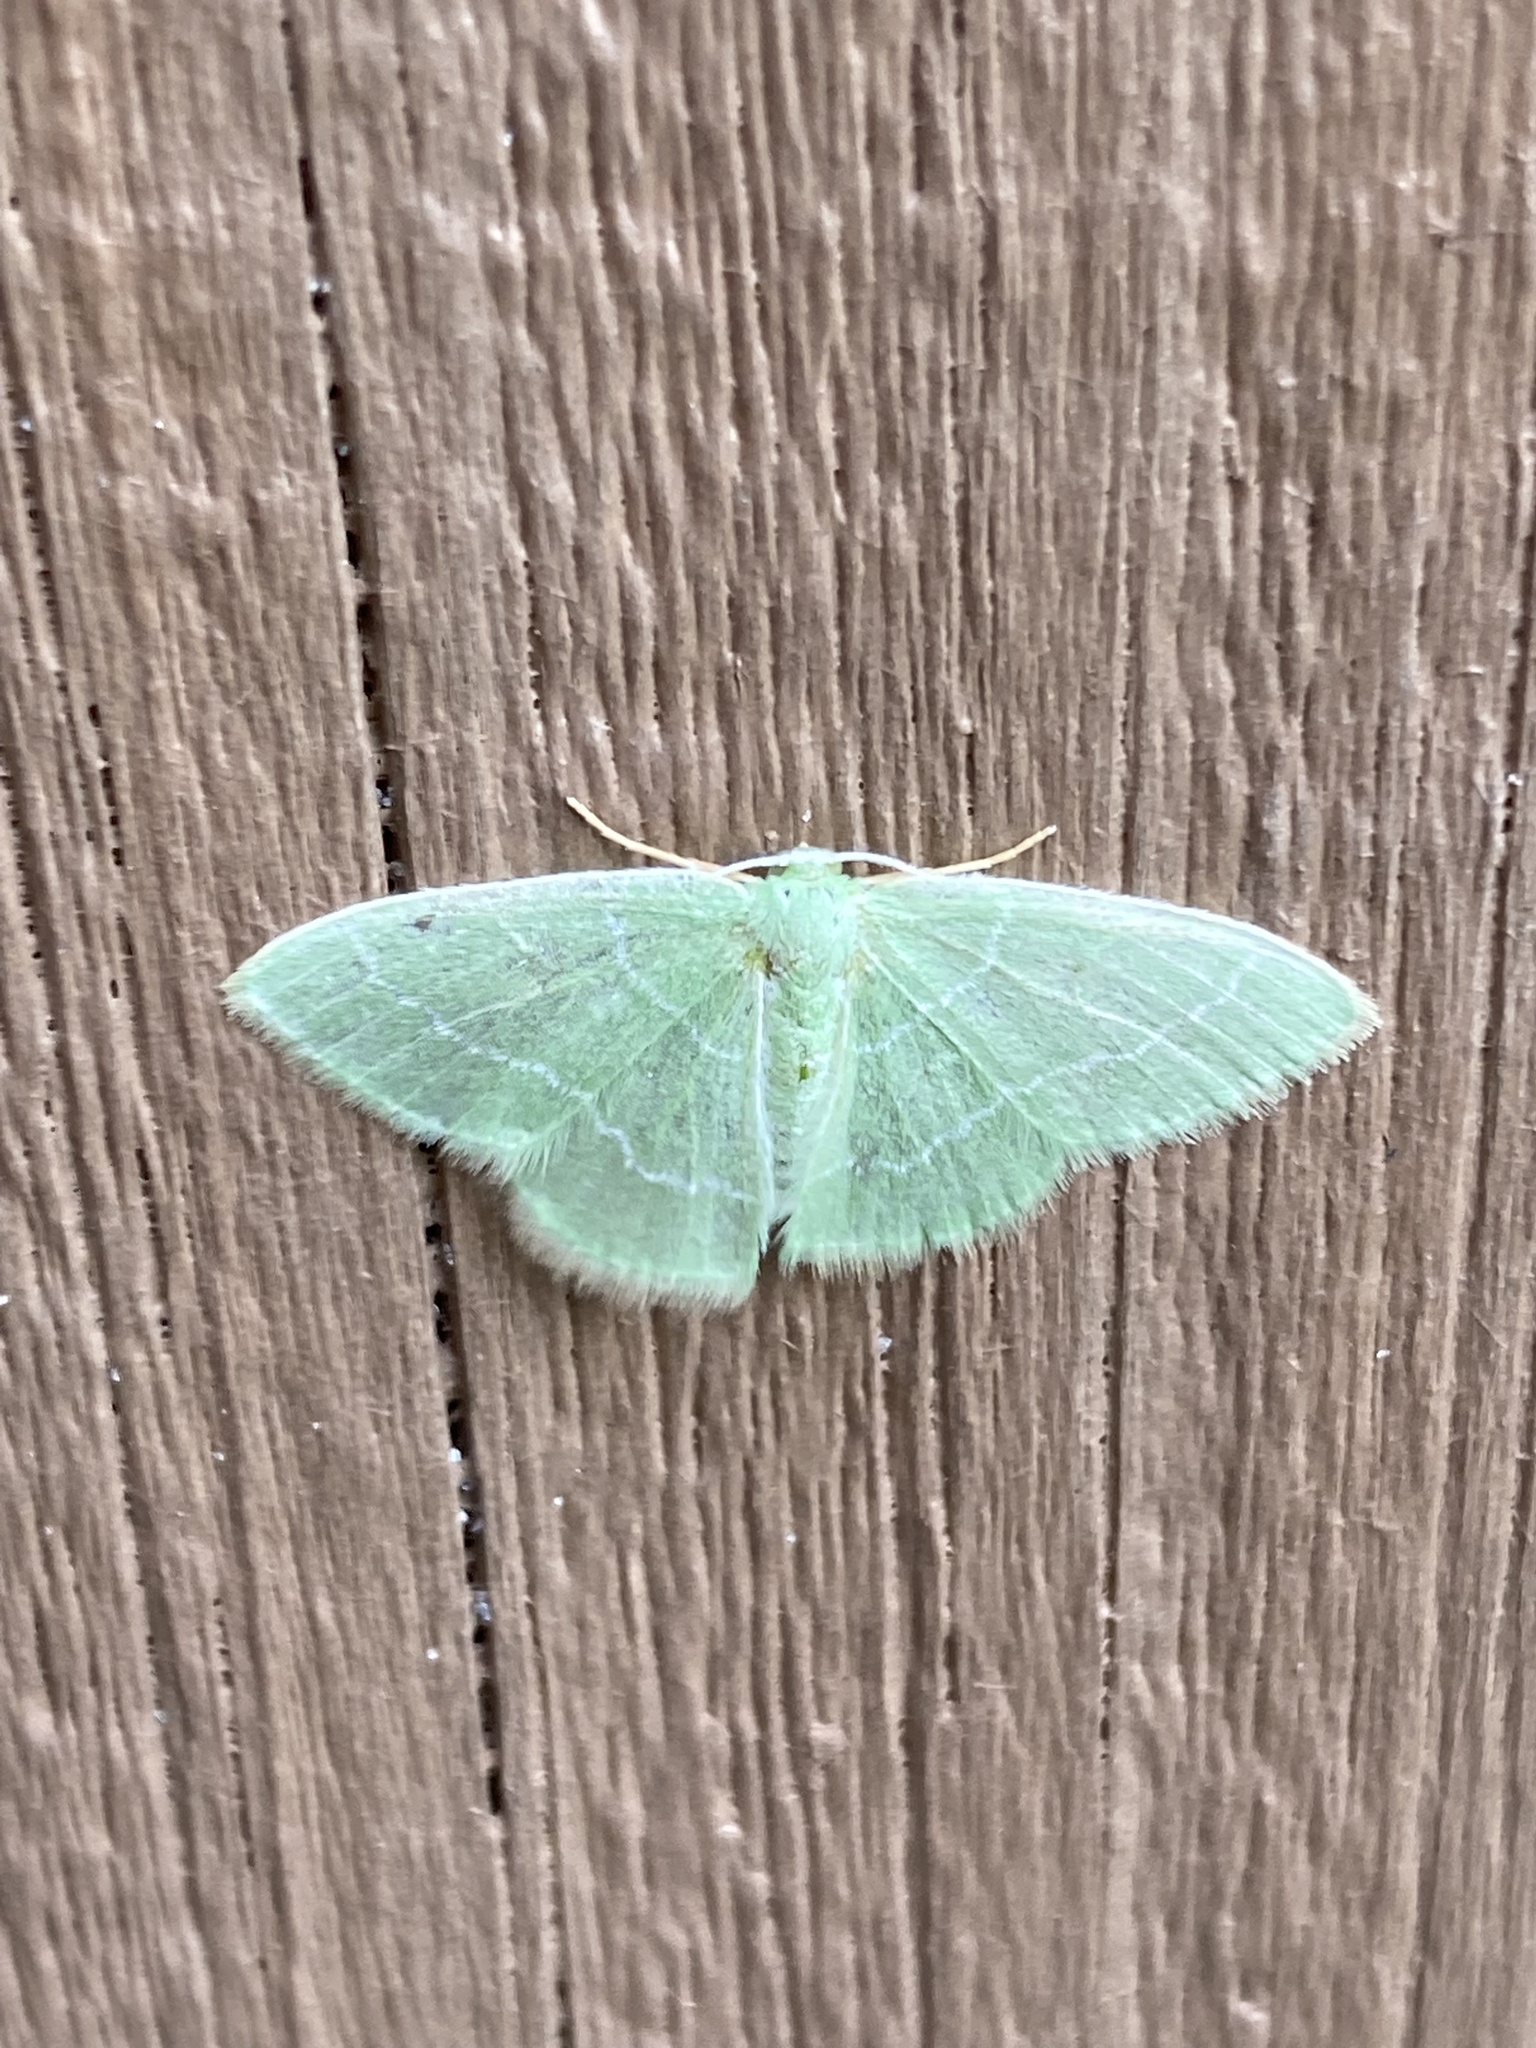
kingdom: Animalia
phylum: Arthropoda
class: Insecta
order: Lepidoptera
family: Geometridae
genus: Nemoria
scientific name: Nemoria elfa
